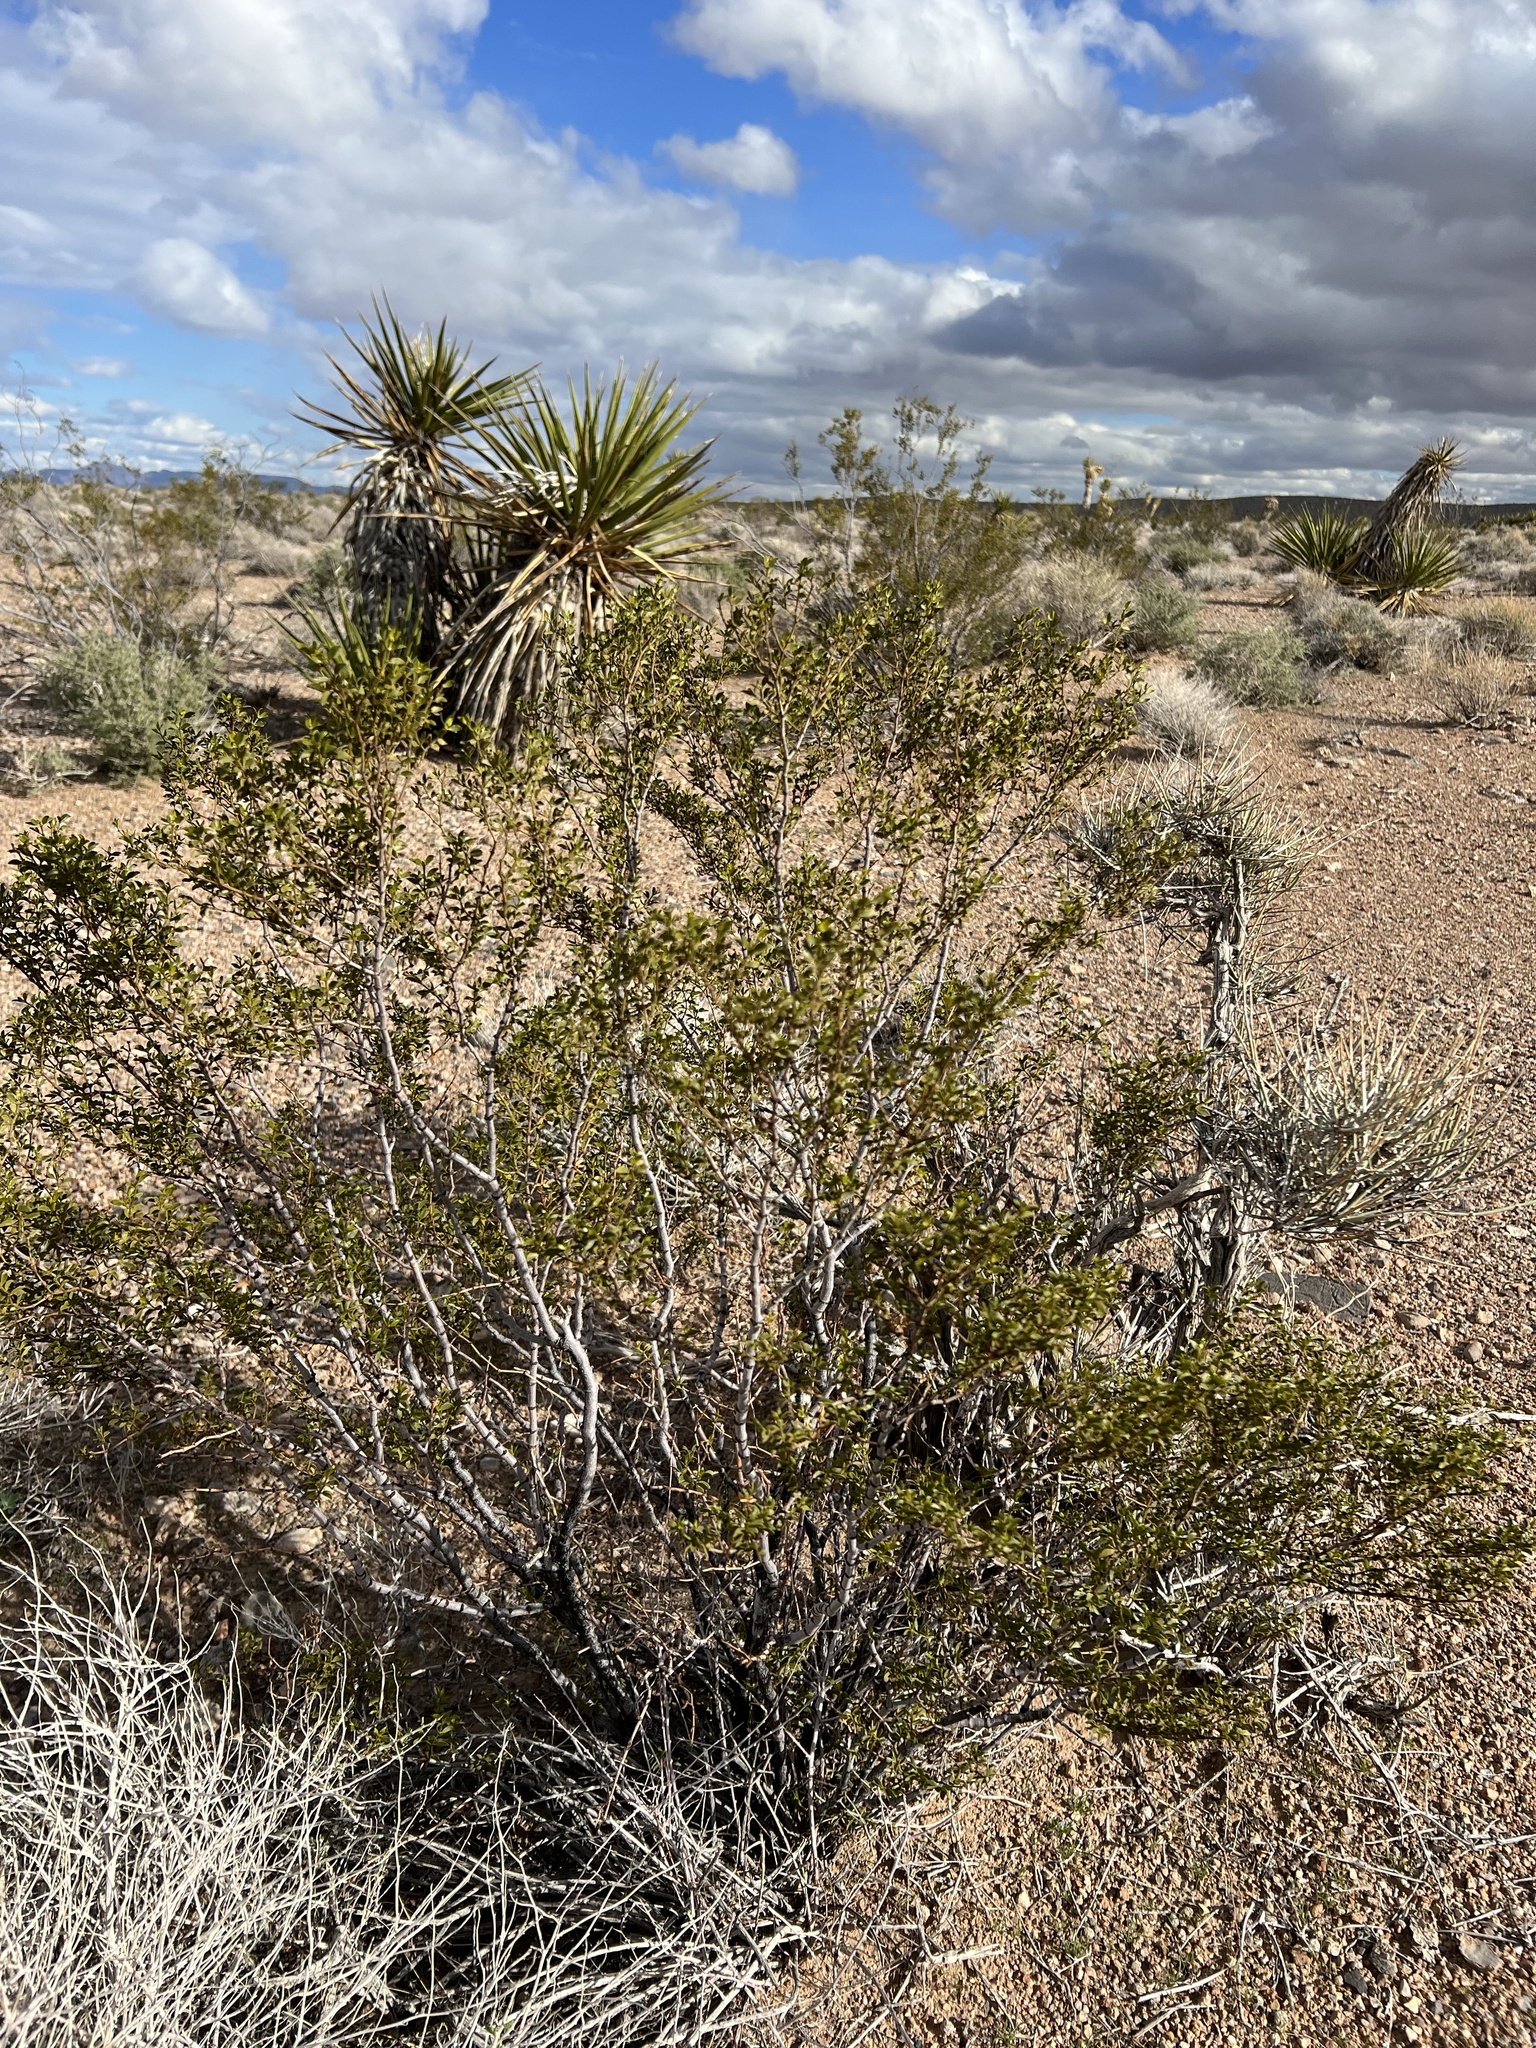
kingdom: Plantae
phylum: Tracheophyta
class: Magnoliopsida
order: Zygophyllales
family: Zygophyllaceae
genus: Larrea
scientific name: Larrea tridentata
